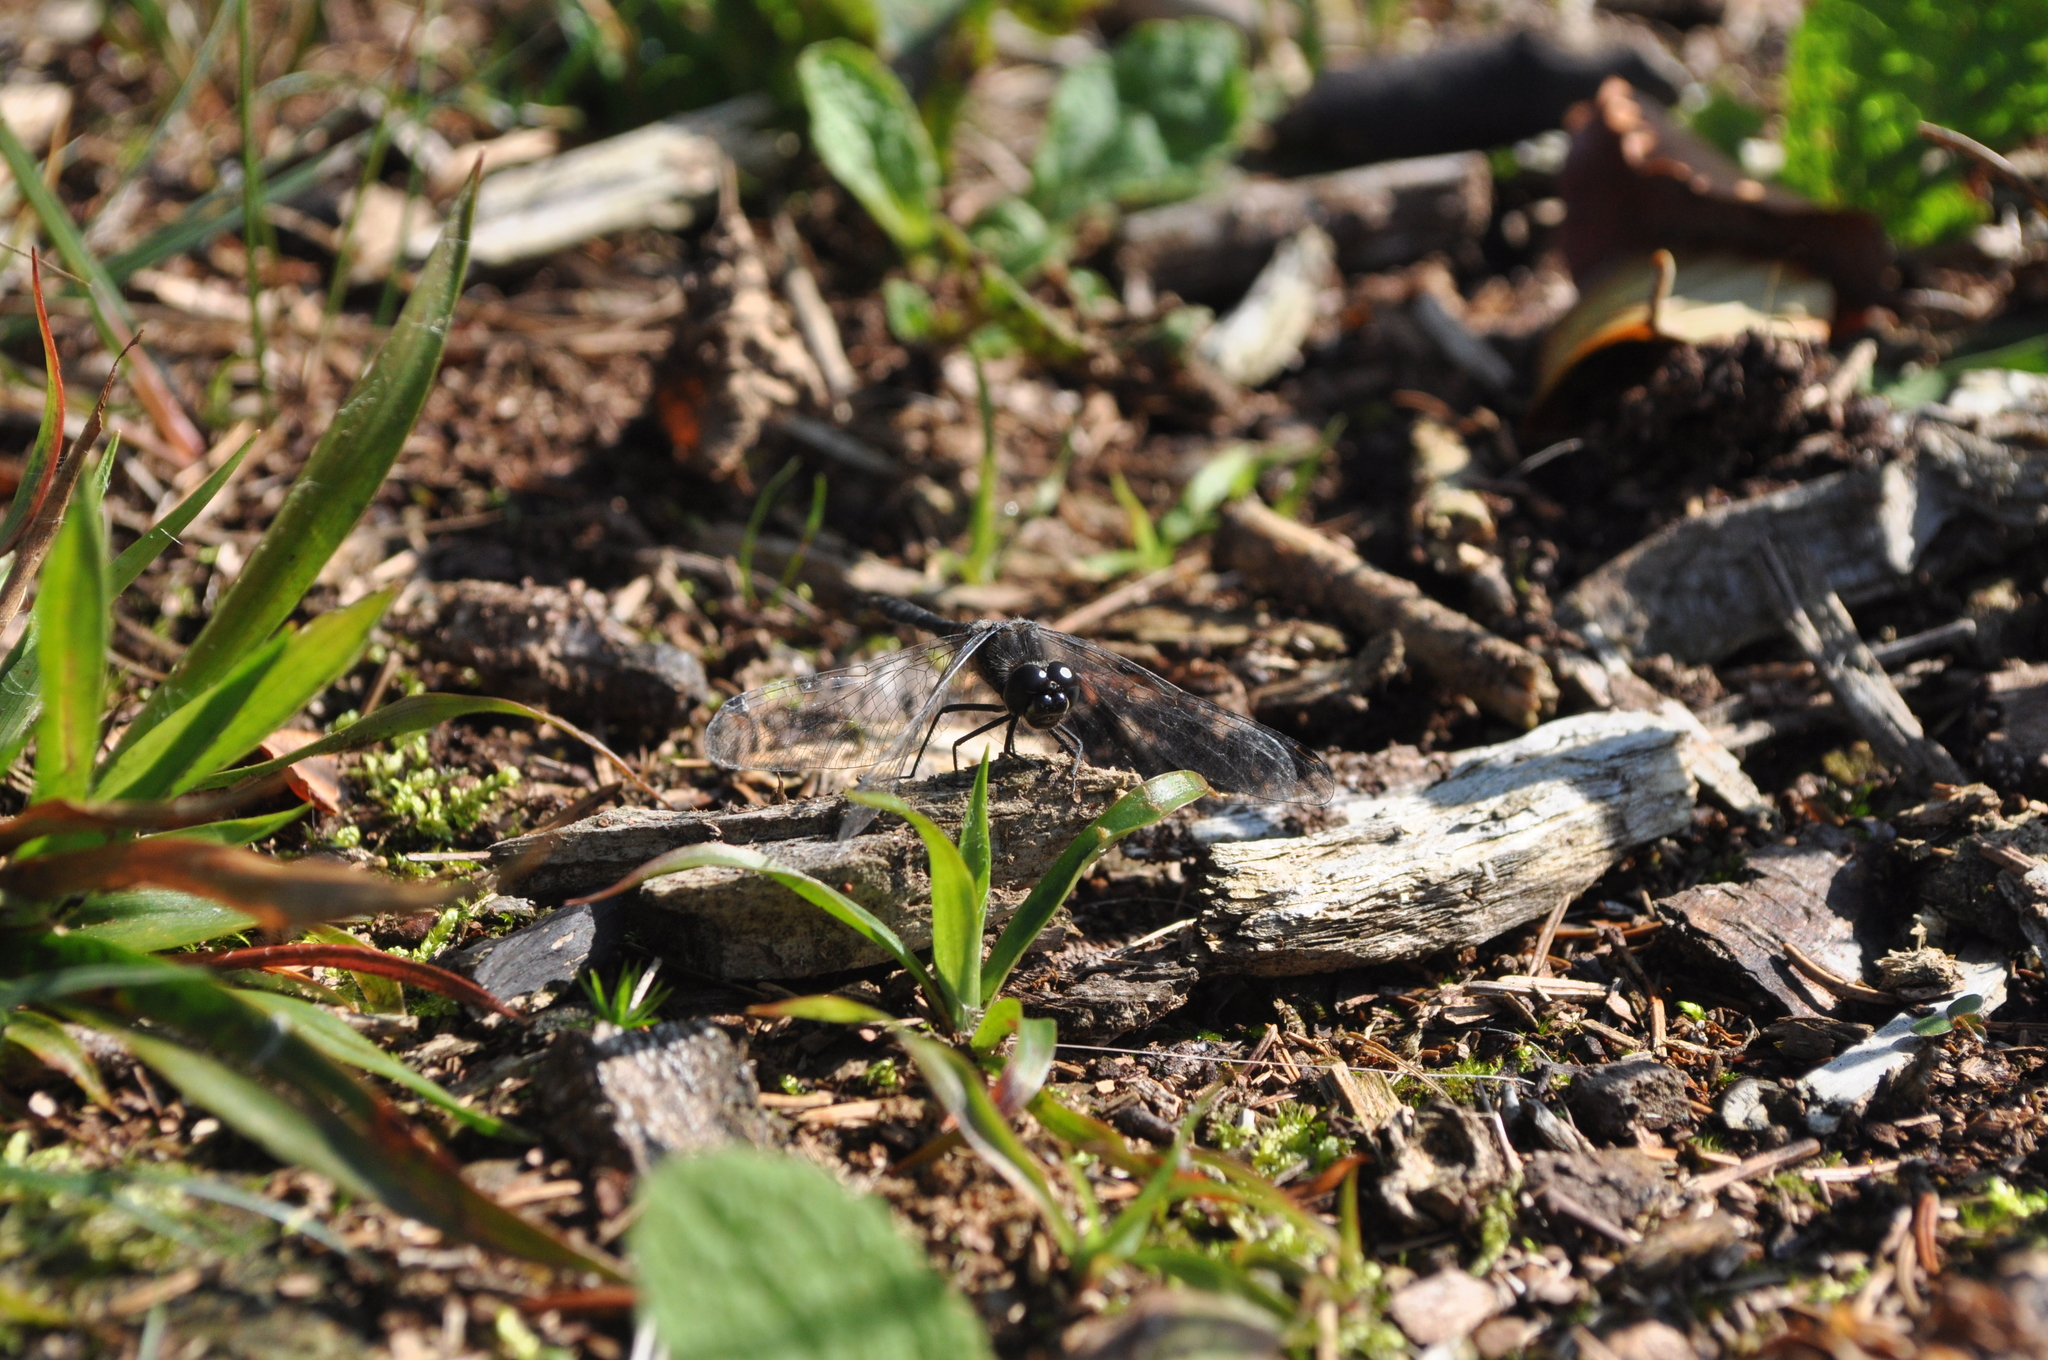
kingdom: Animalia
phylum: Arthropoda
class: Insecta
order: Odonata
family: Libellulidae
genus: Sympetrum
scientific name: Sympetrum danae
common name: Black darter
